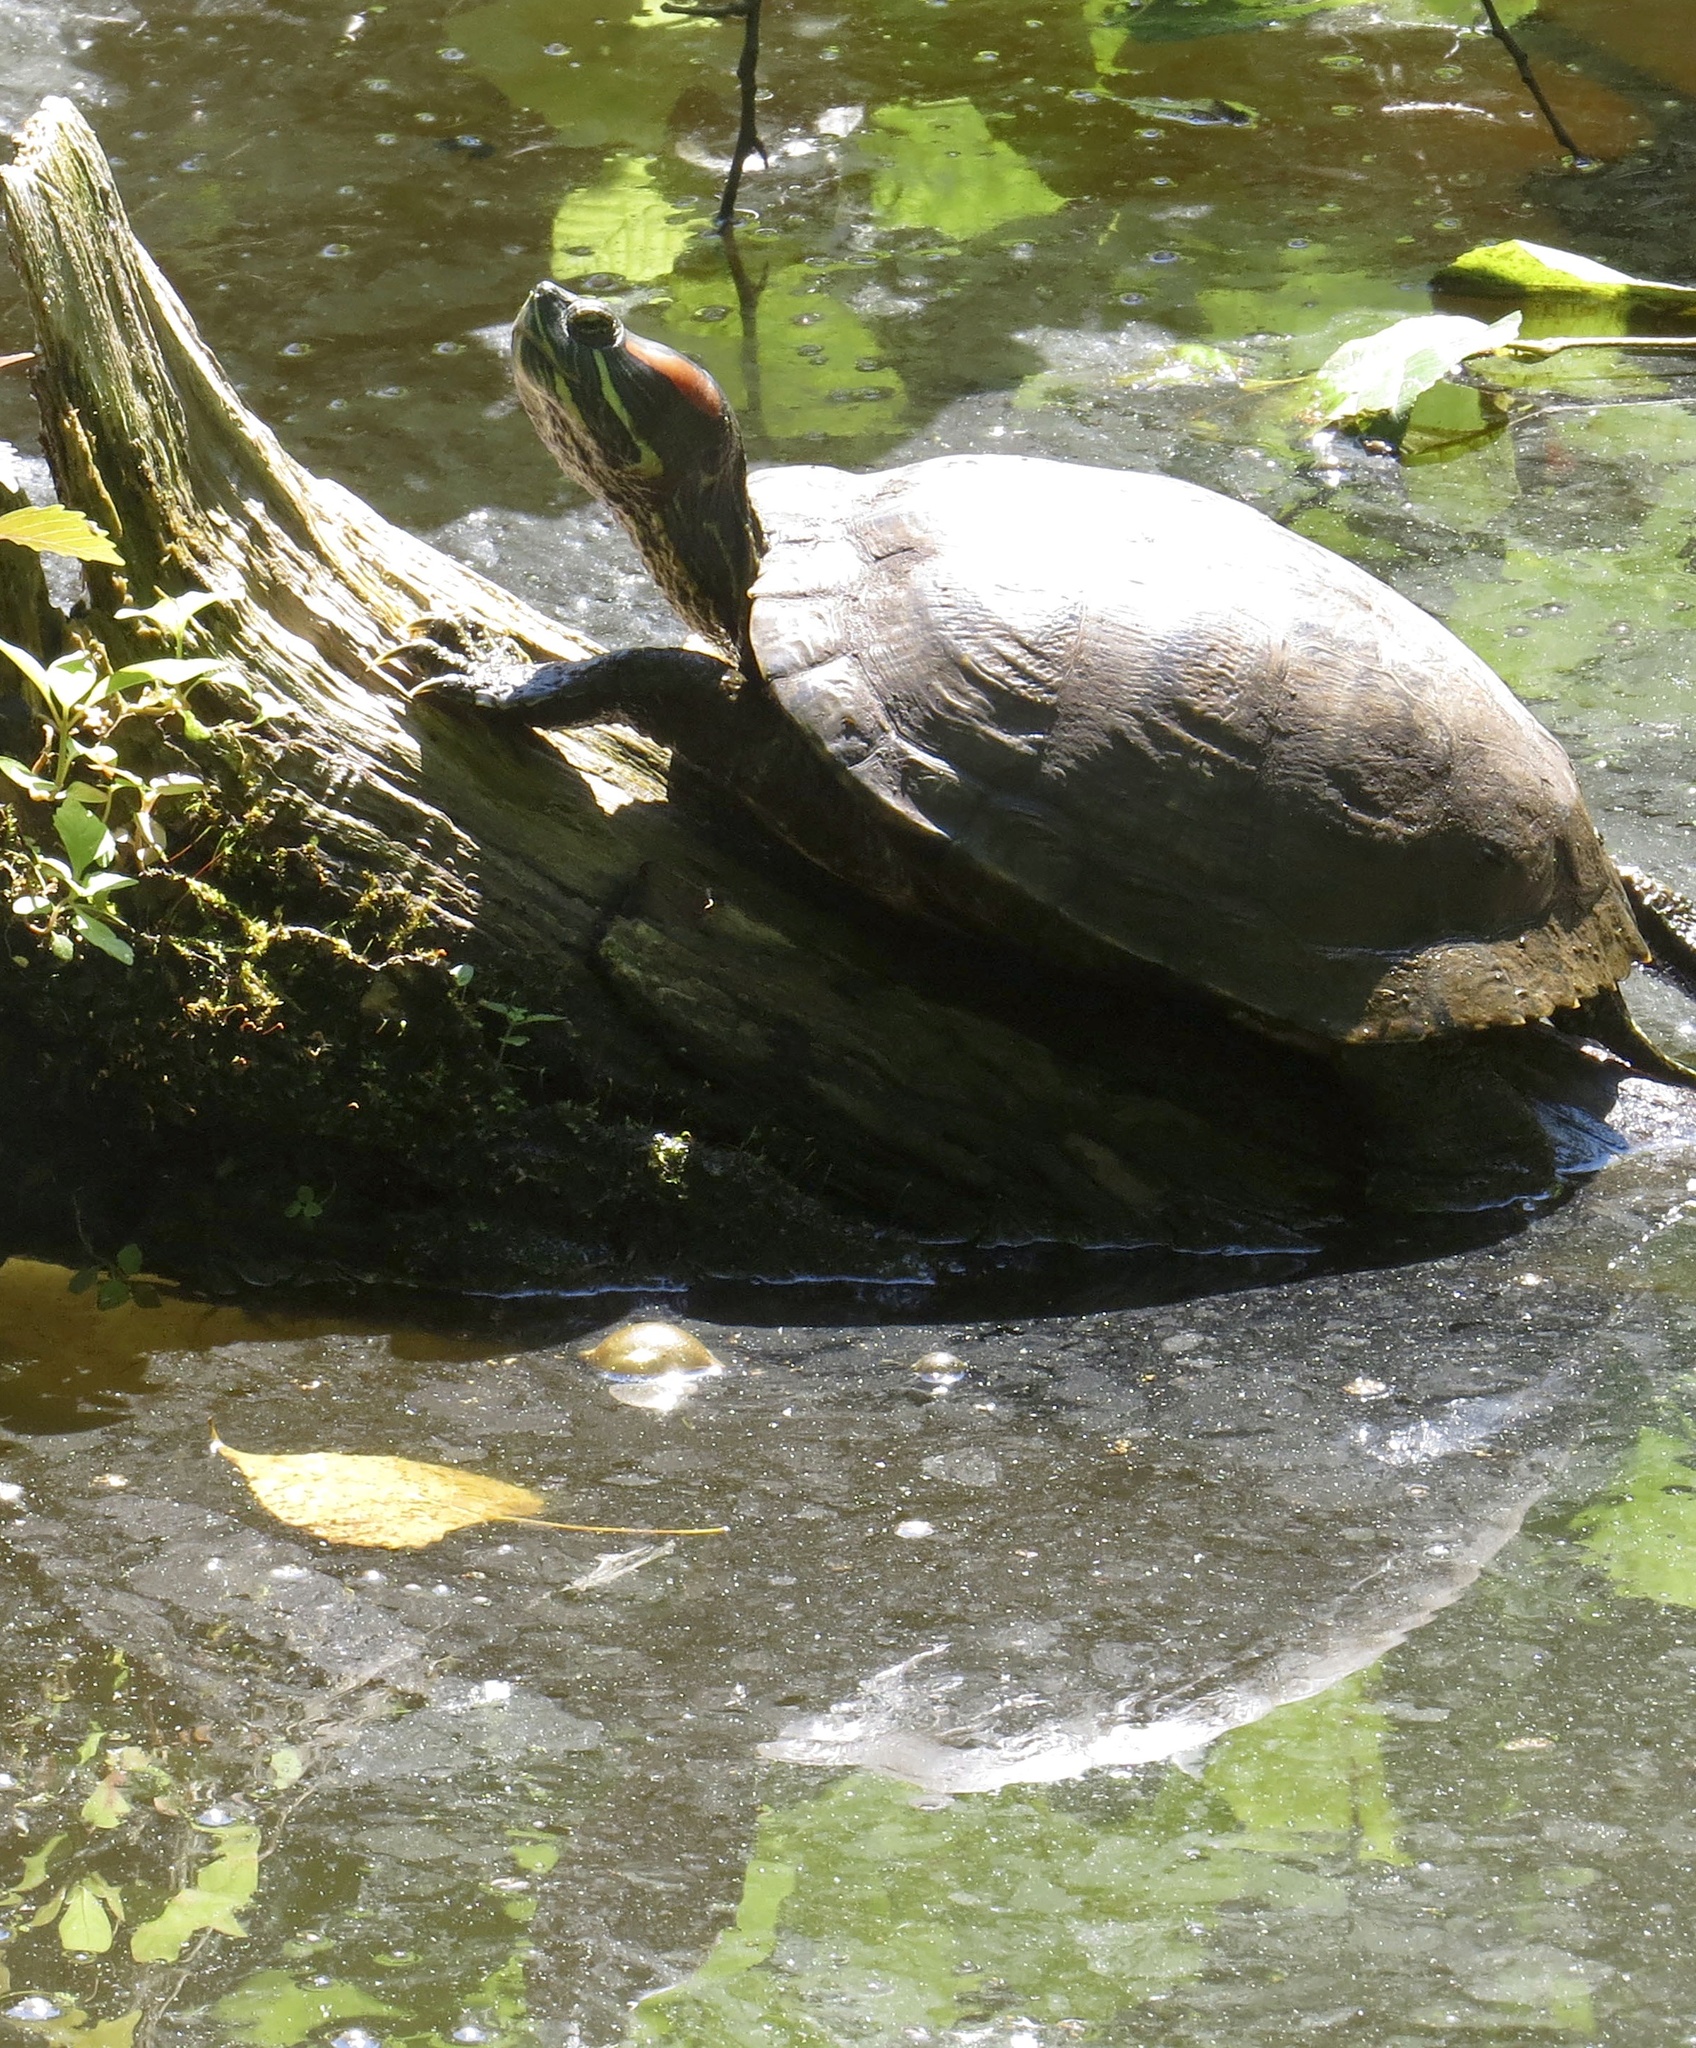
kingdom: Animalia
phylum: Chordata
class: Testudines
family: Emydidae
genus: Trachemys
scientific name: Trachemys scripta
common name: Slider
